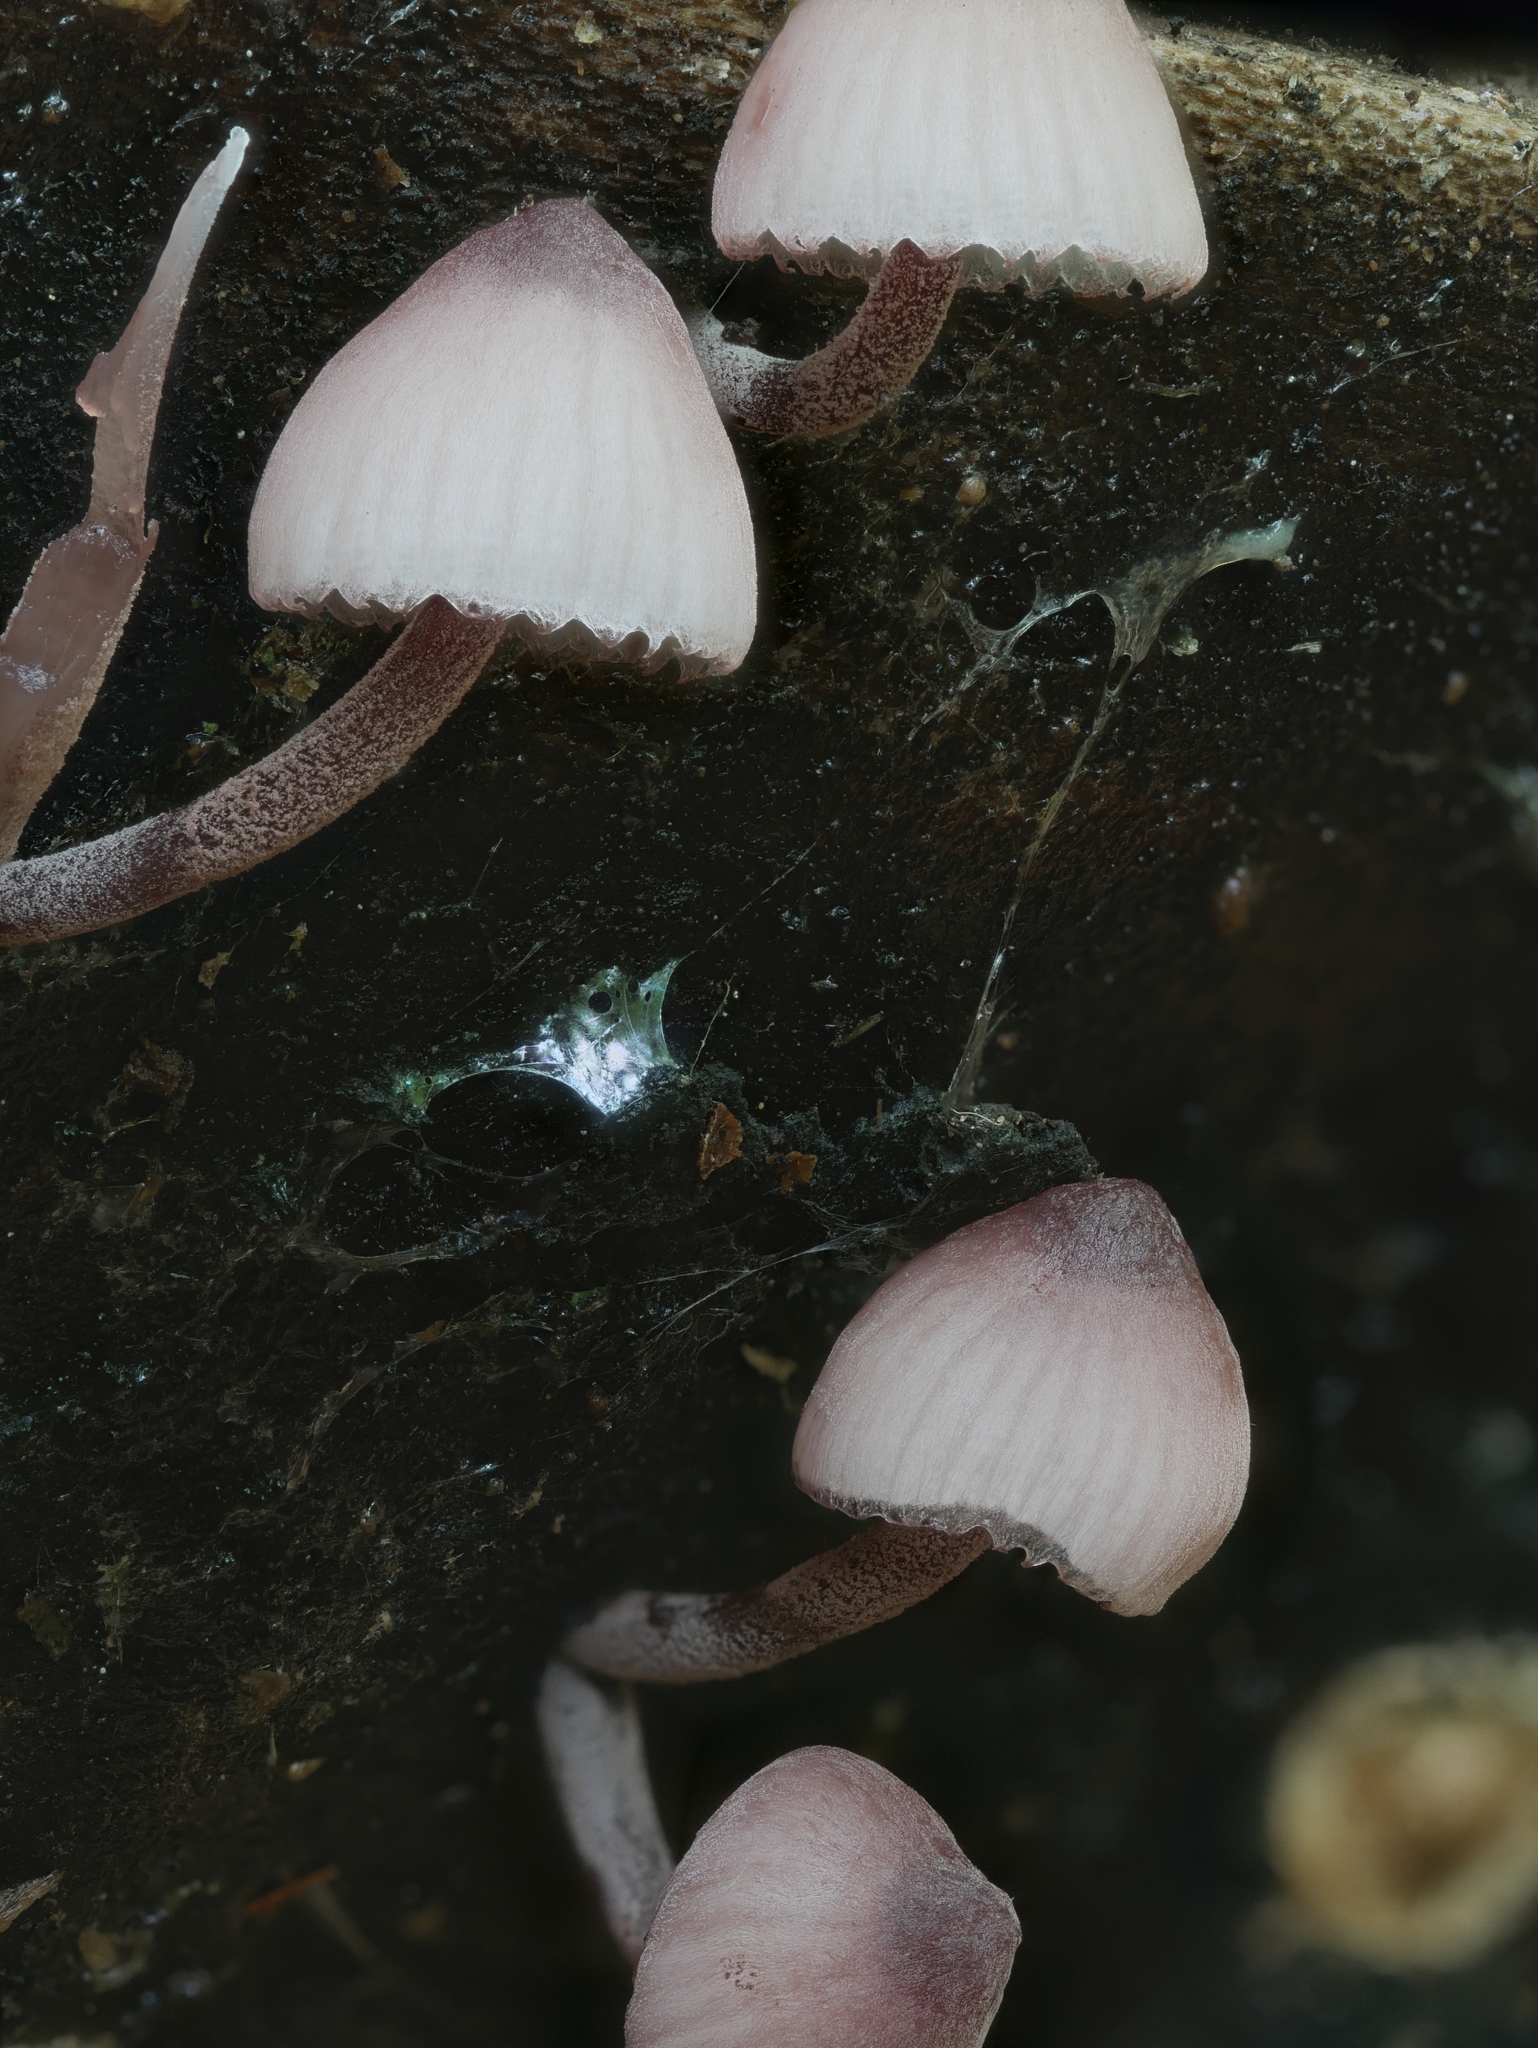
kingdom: Fungi
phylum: Basidiomycota
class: Agaricomycetes
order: Agaricales
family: Mycenaceae
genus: Mycena
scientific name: Mycena haematopus
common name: Burgundydrop bonnet
